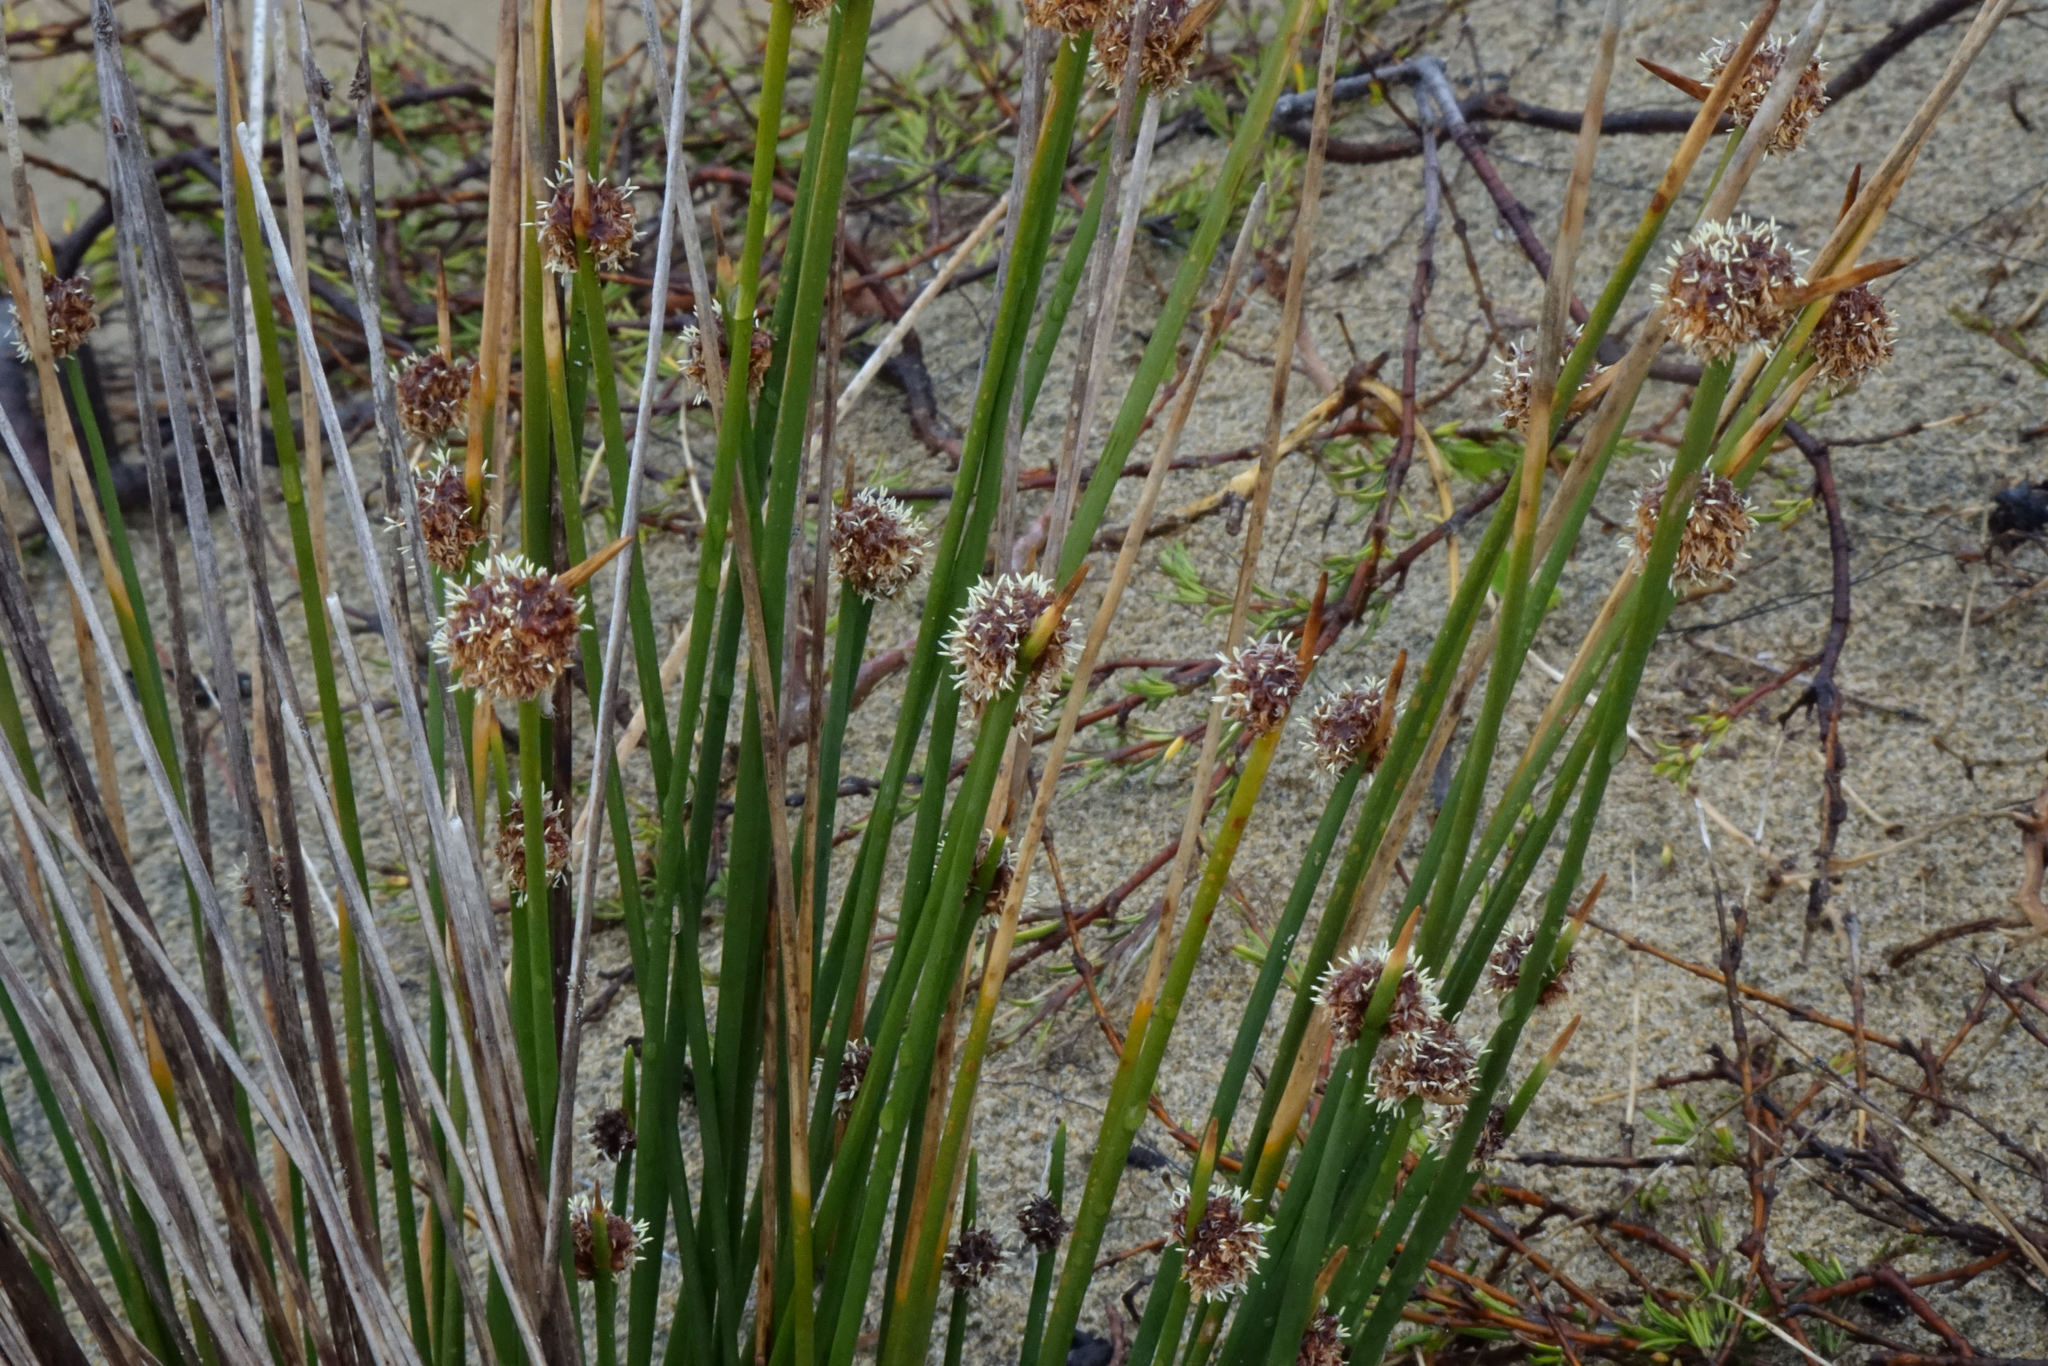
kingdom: Plantae
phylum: Tracheophyta
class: Liliopsida
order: Poales
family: Cyperaceae
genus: Ficinia
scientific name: Ficinia nodosa
